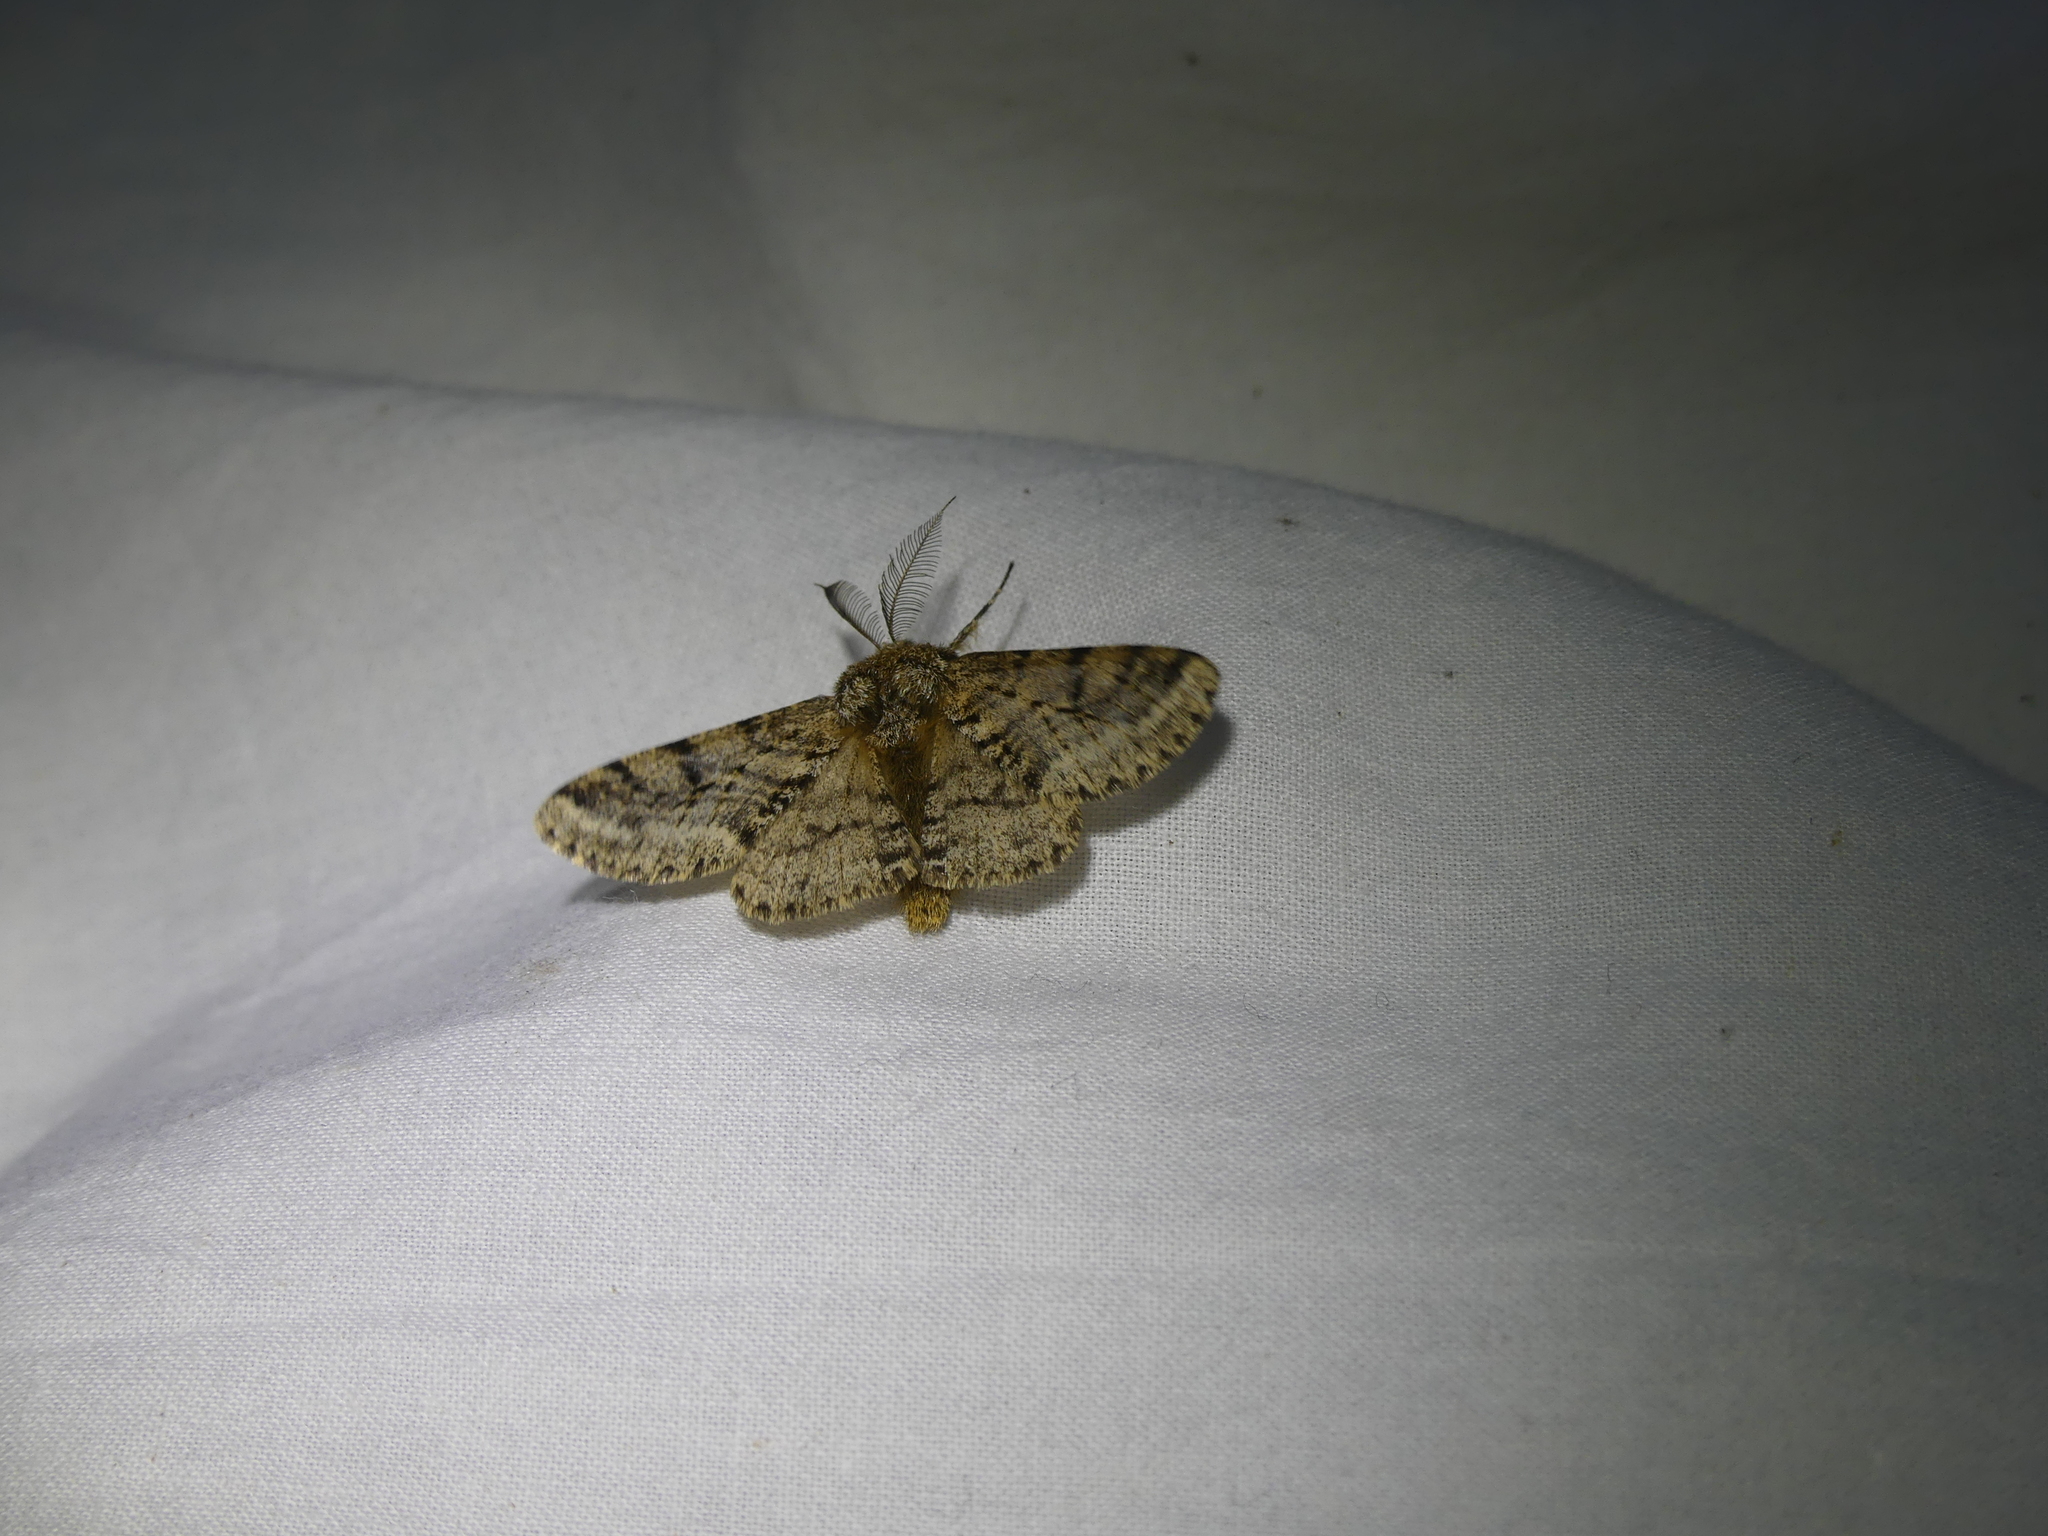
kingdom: Animalia
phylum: Arthropoda
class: Insecta
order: Lepidoptera
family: Geometridae
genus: Lycia
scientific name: Lycia hirtaria
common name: Brindled beauty
